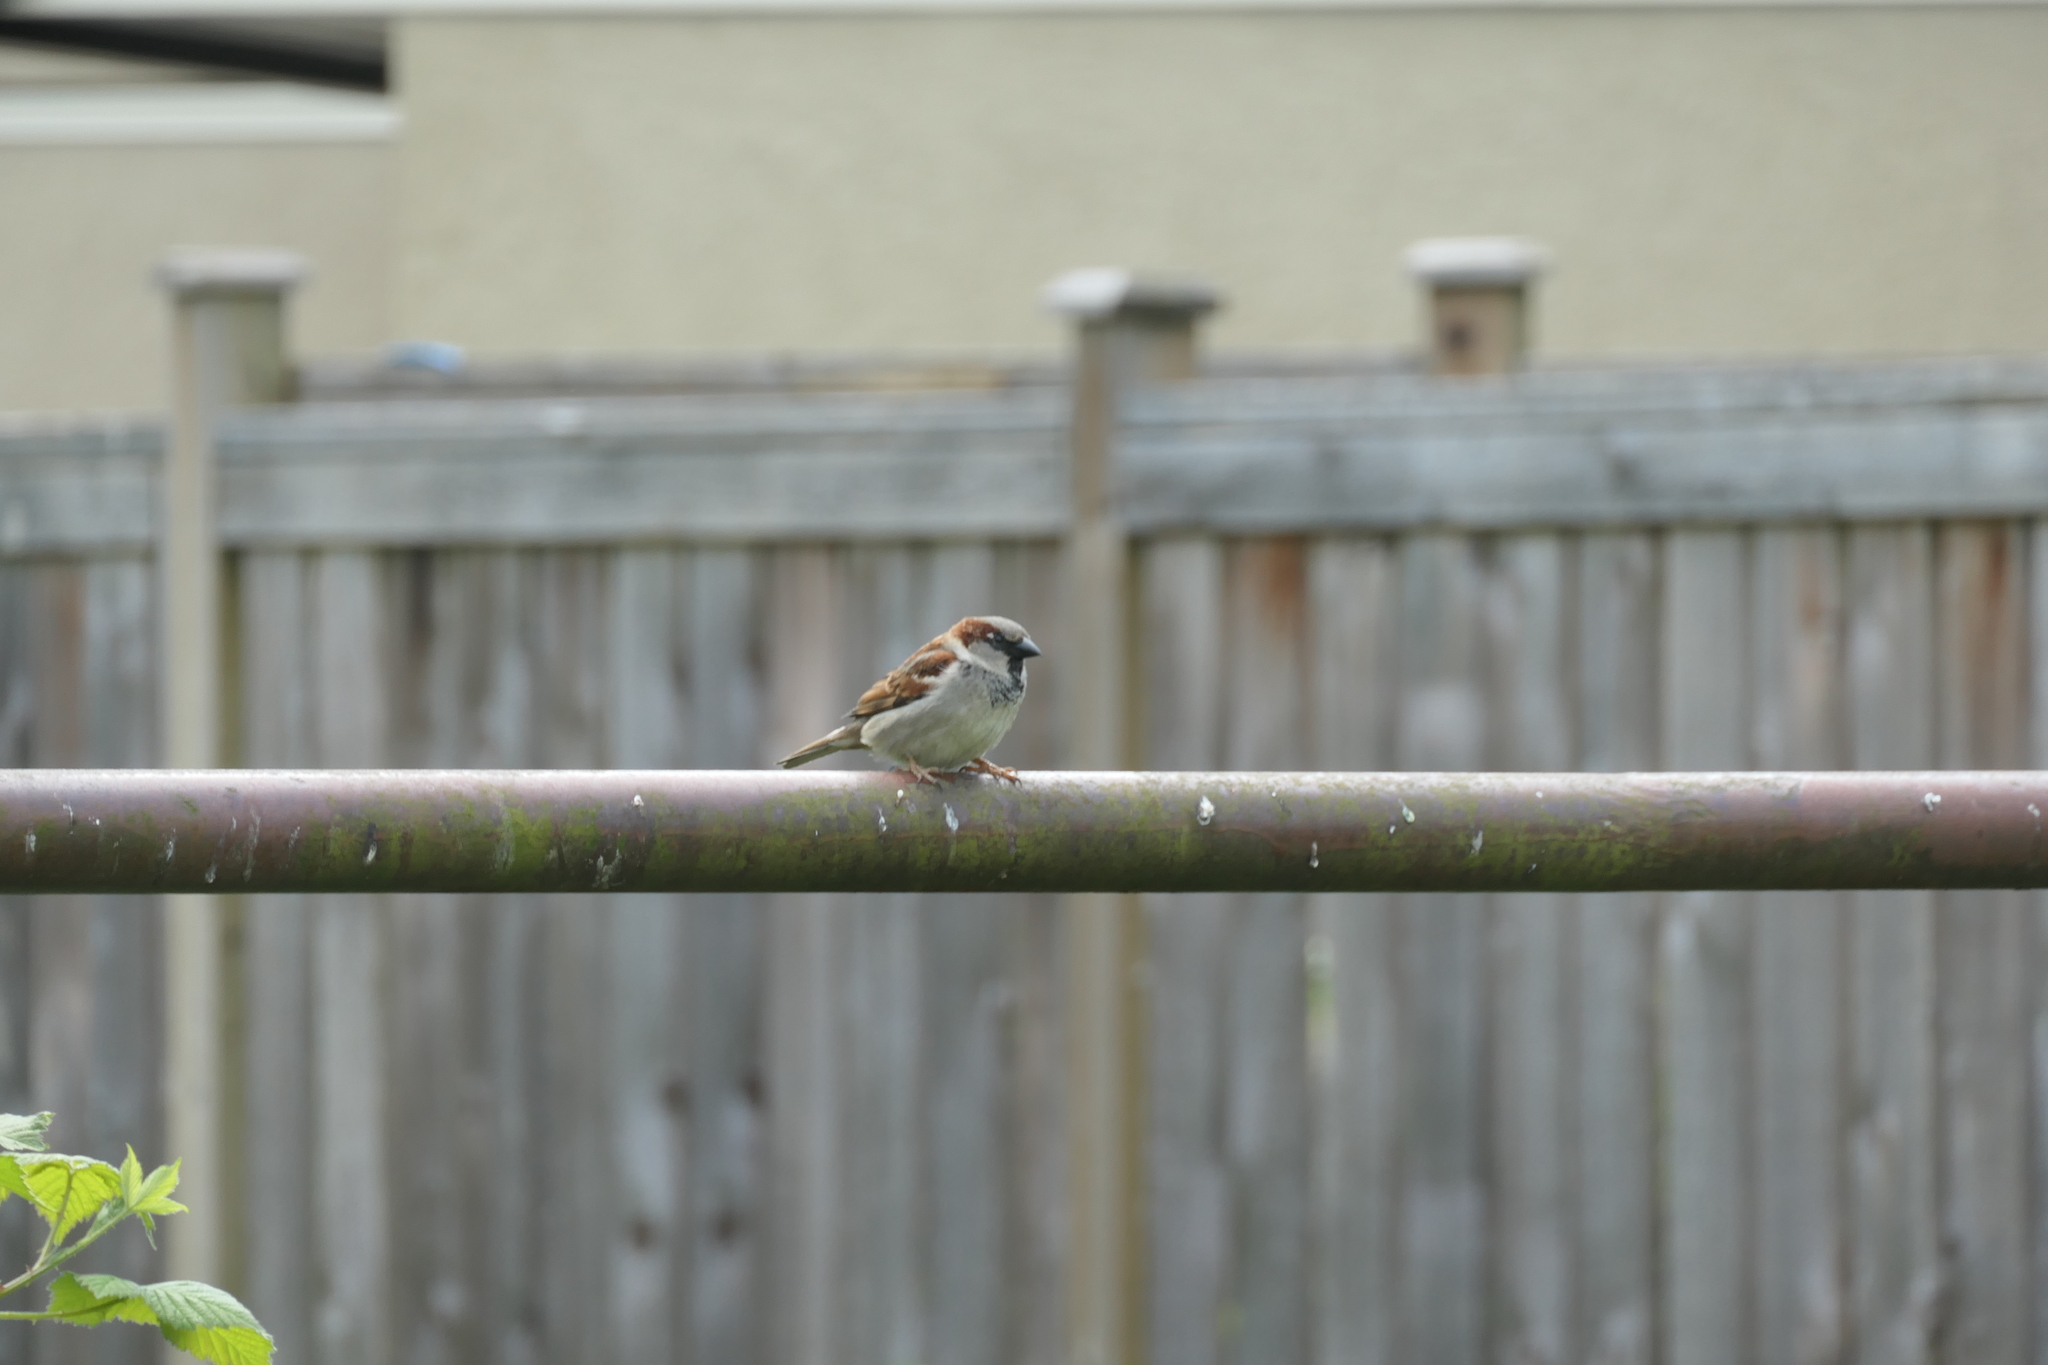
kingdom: Animalia
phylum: Chordata
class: Aves
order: Passeriformes
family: Passeridae
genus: Passer
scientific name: Passer domesticus
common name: House sparrow
